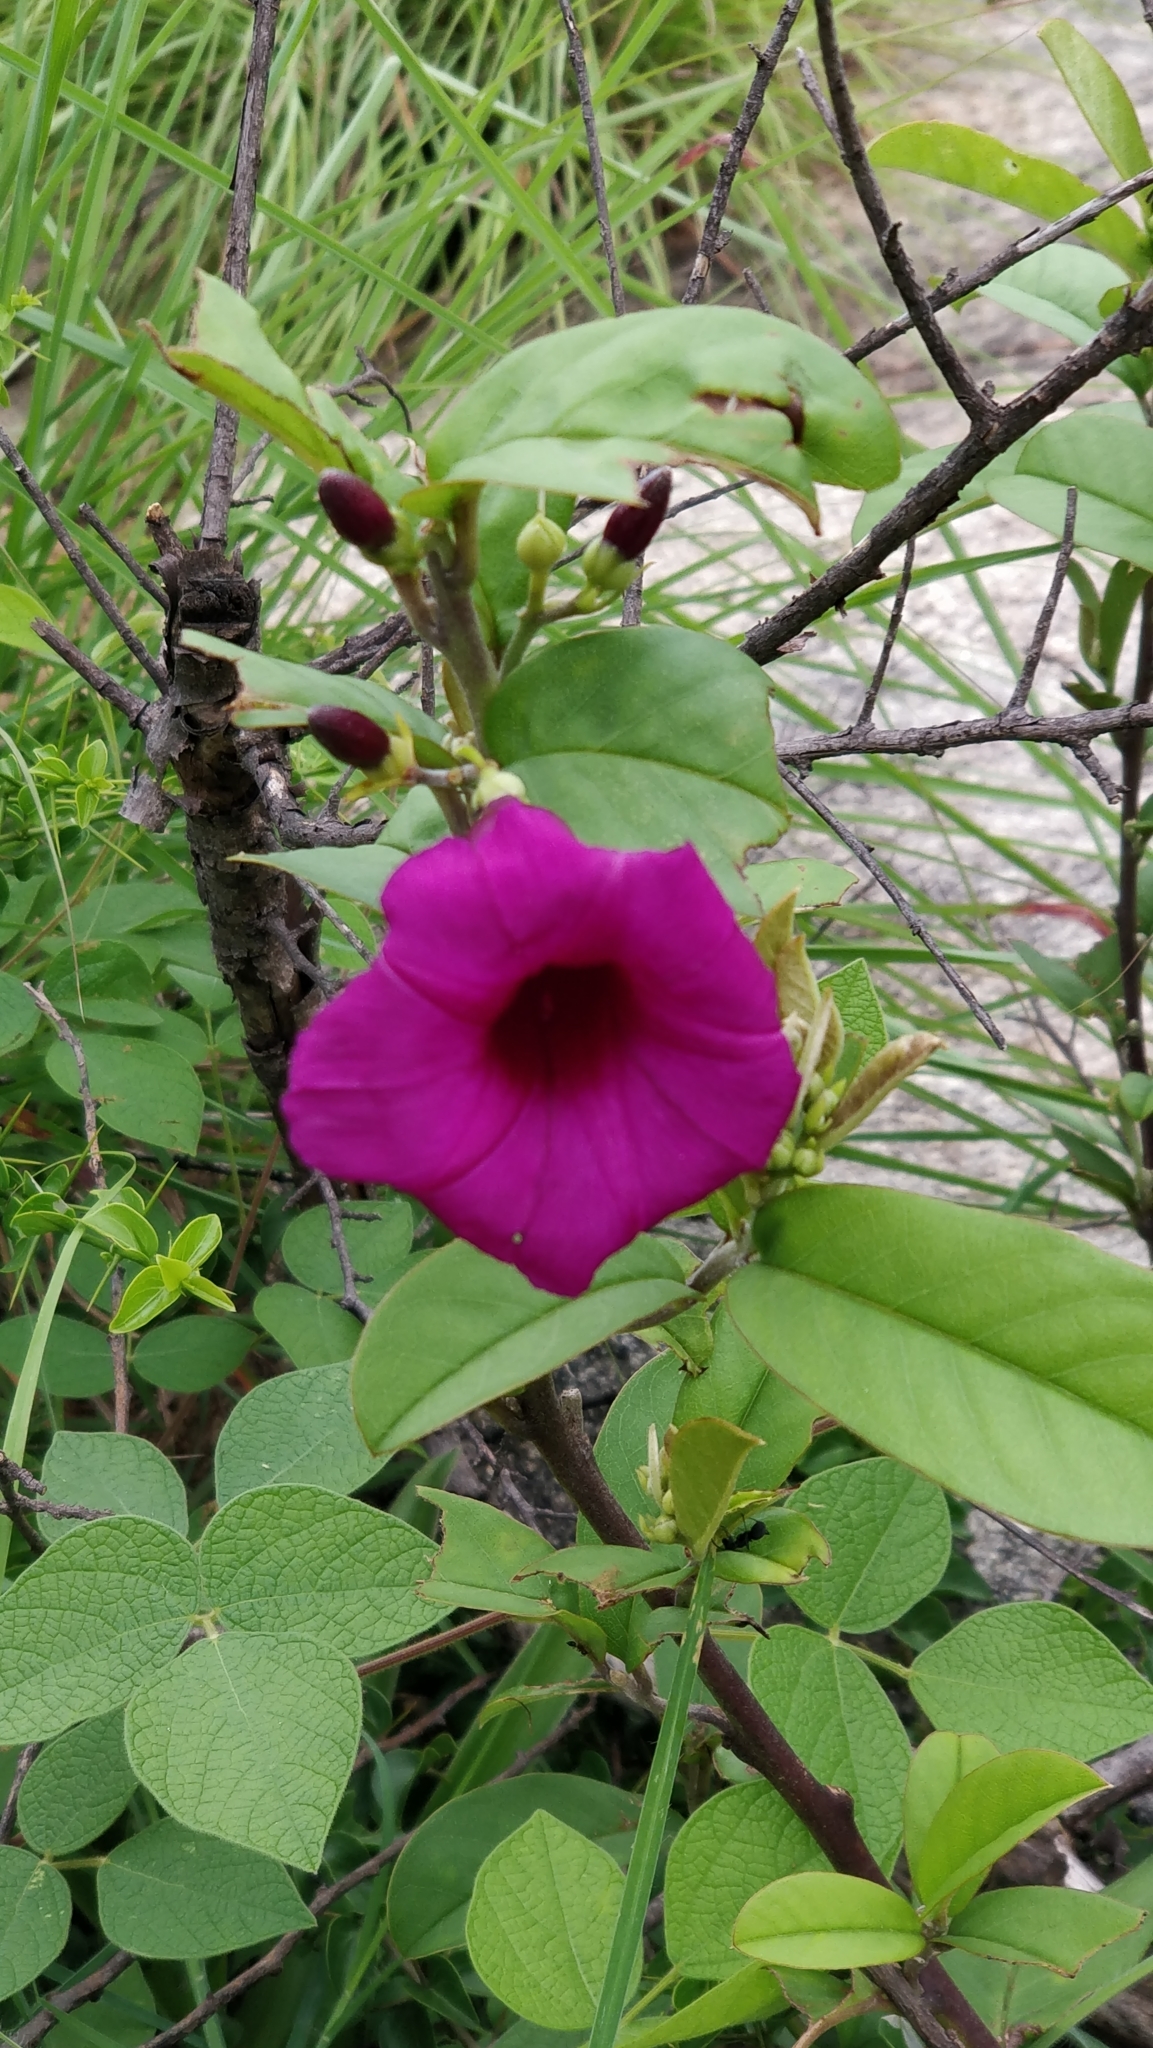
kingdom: Plantae
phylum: Tracheophyta
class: Magnoliopsida
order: Solanales
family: Convolvulaceae
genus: Argyreia
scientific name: Argyreia cuneata
